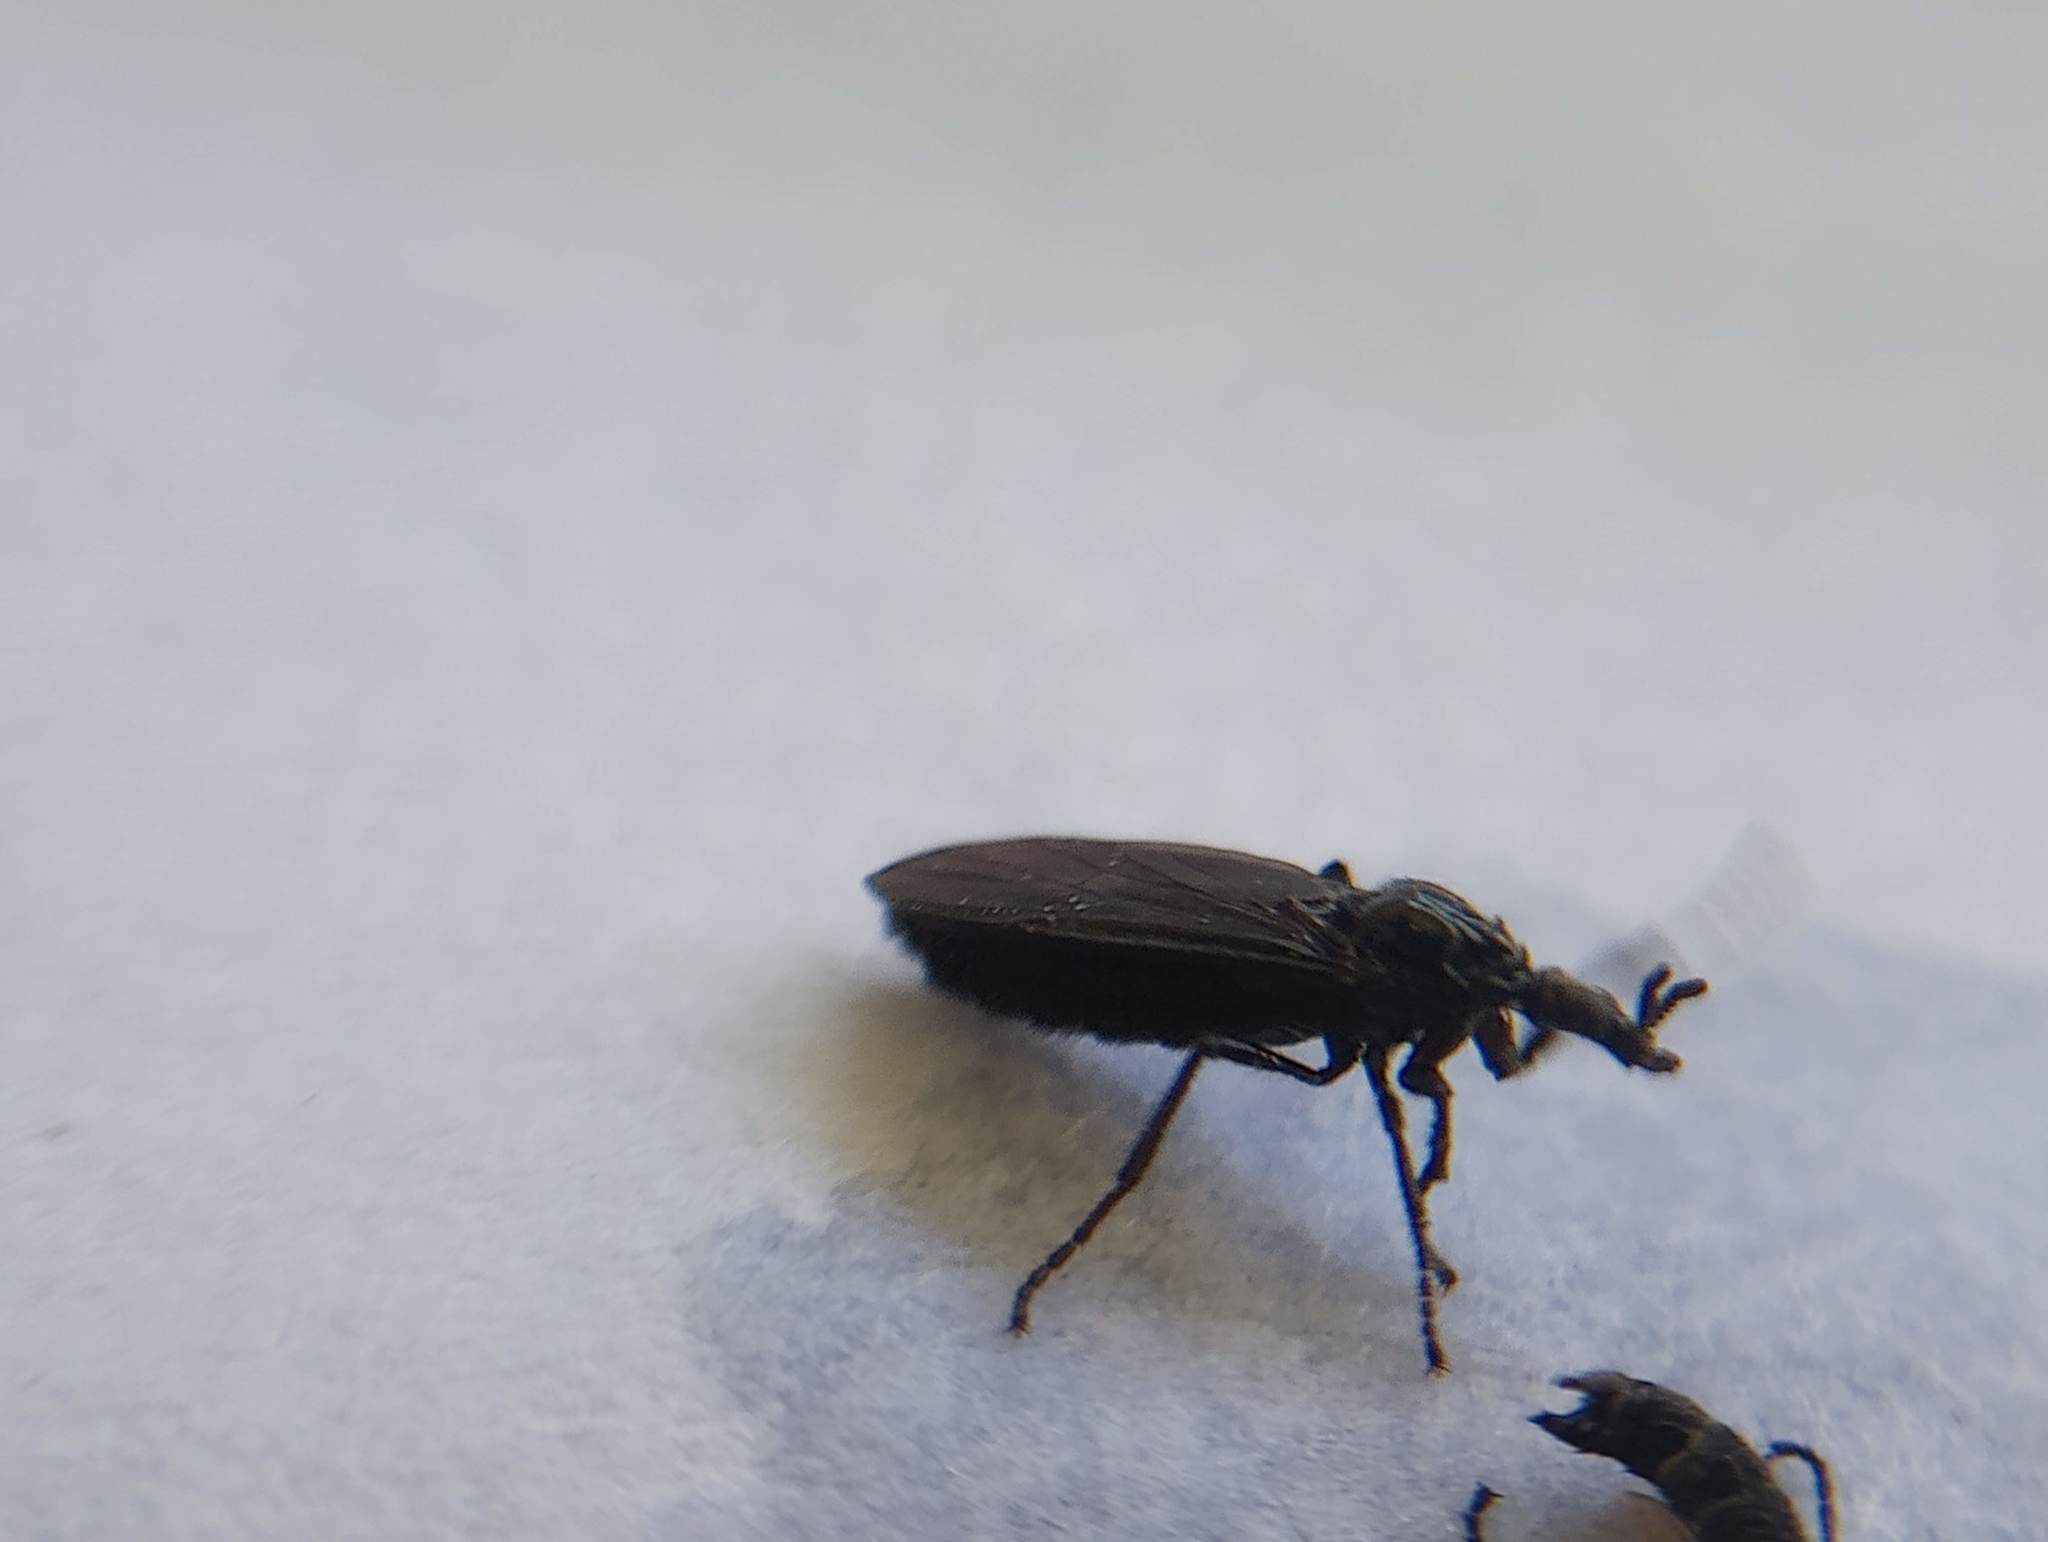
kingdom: Animalia
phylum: Arthropoda
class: Insecta
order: Diptera
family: Bibionidae
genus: Dilophus
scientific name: Dilophus orbatus
